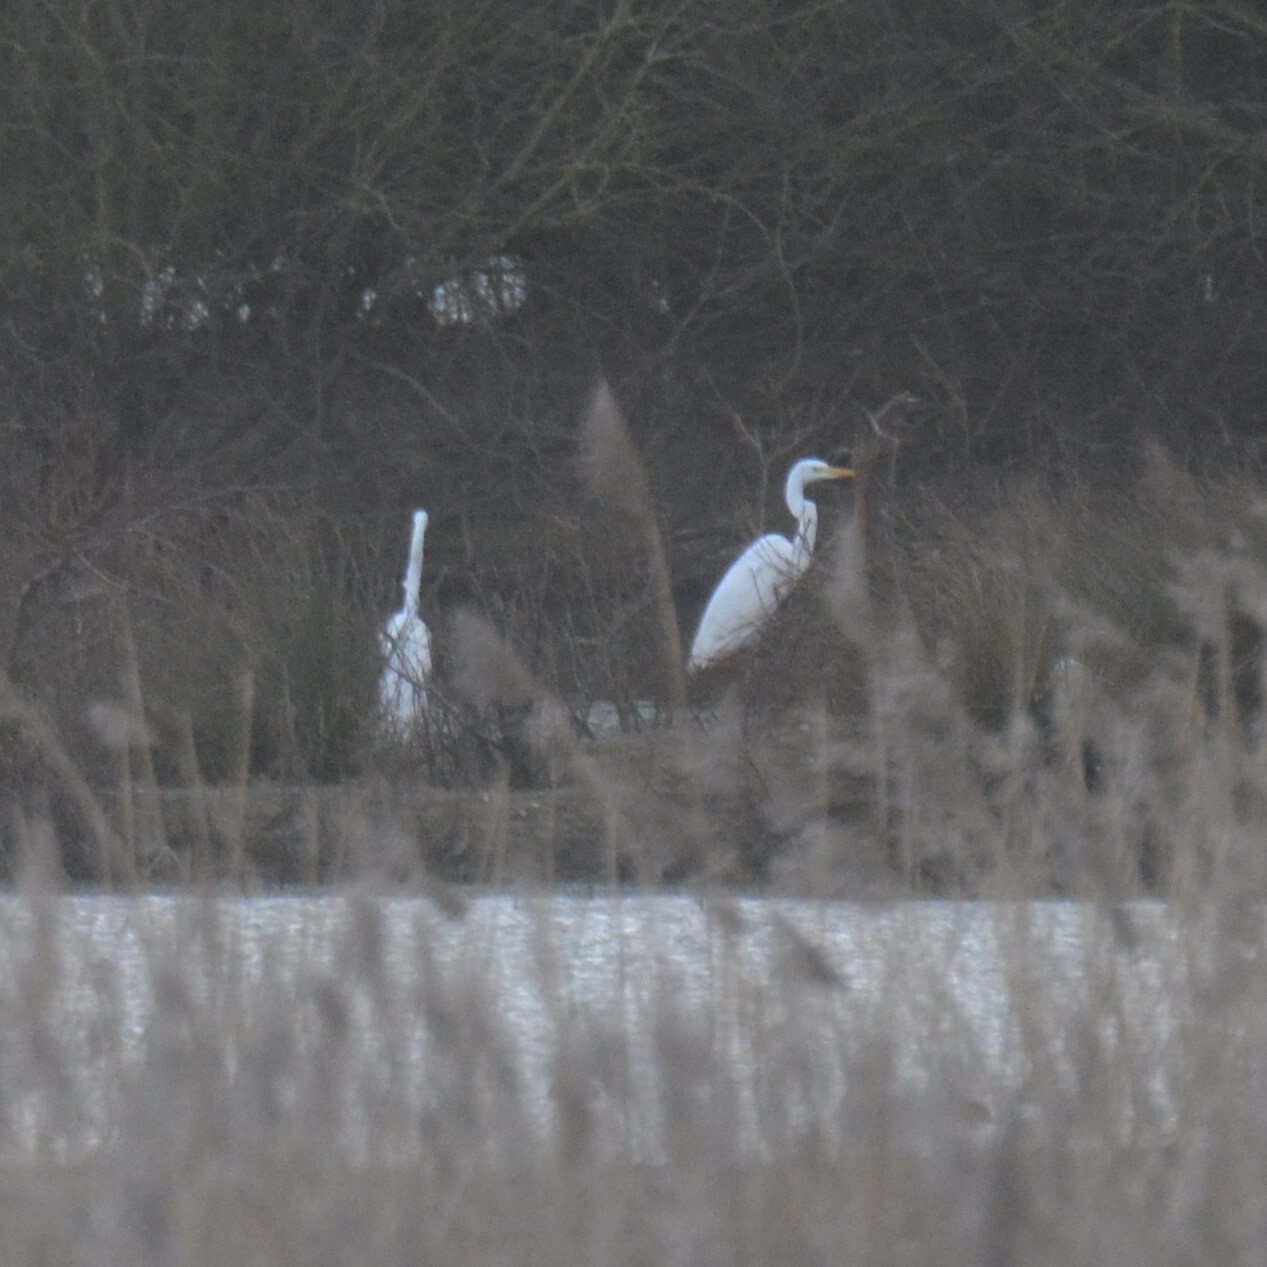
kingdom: Animalia
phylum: Chordata
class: Aves
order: Pelecaniformes
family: Ardeidae
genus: Ardea
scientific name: Ardea alba
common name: Great egret
